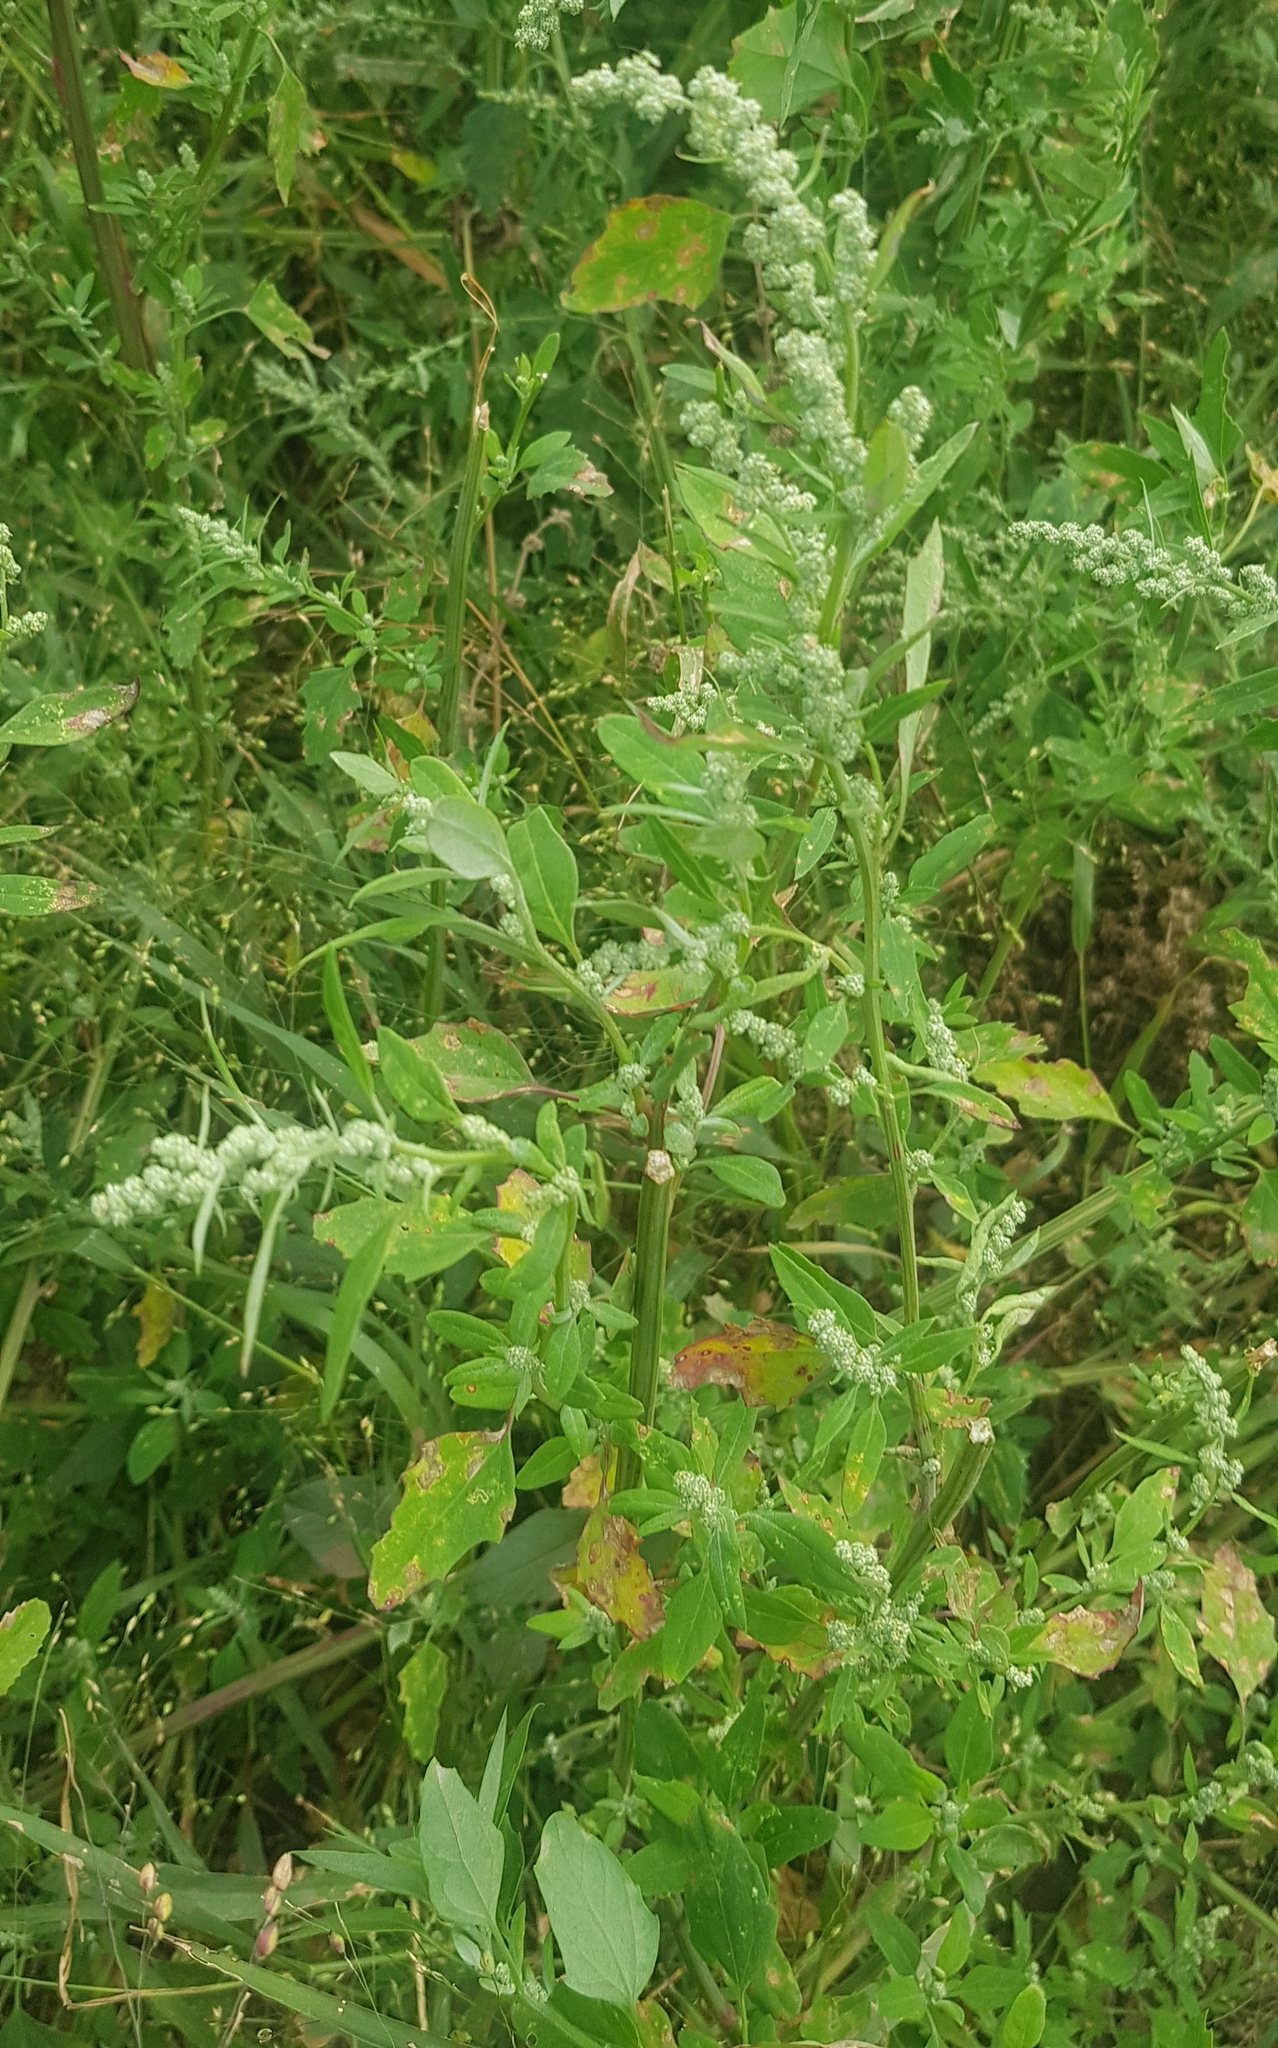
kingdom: Plantae
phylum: Tracheophyta
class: Magnoliopsida
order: Caryophyllales
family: Amaranthaceae
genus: Chenopodium
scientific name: Chenopodium album
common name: Fat-hen
